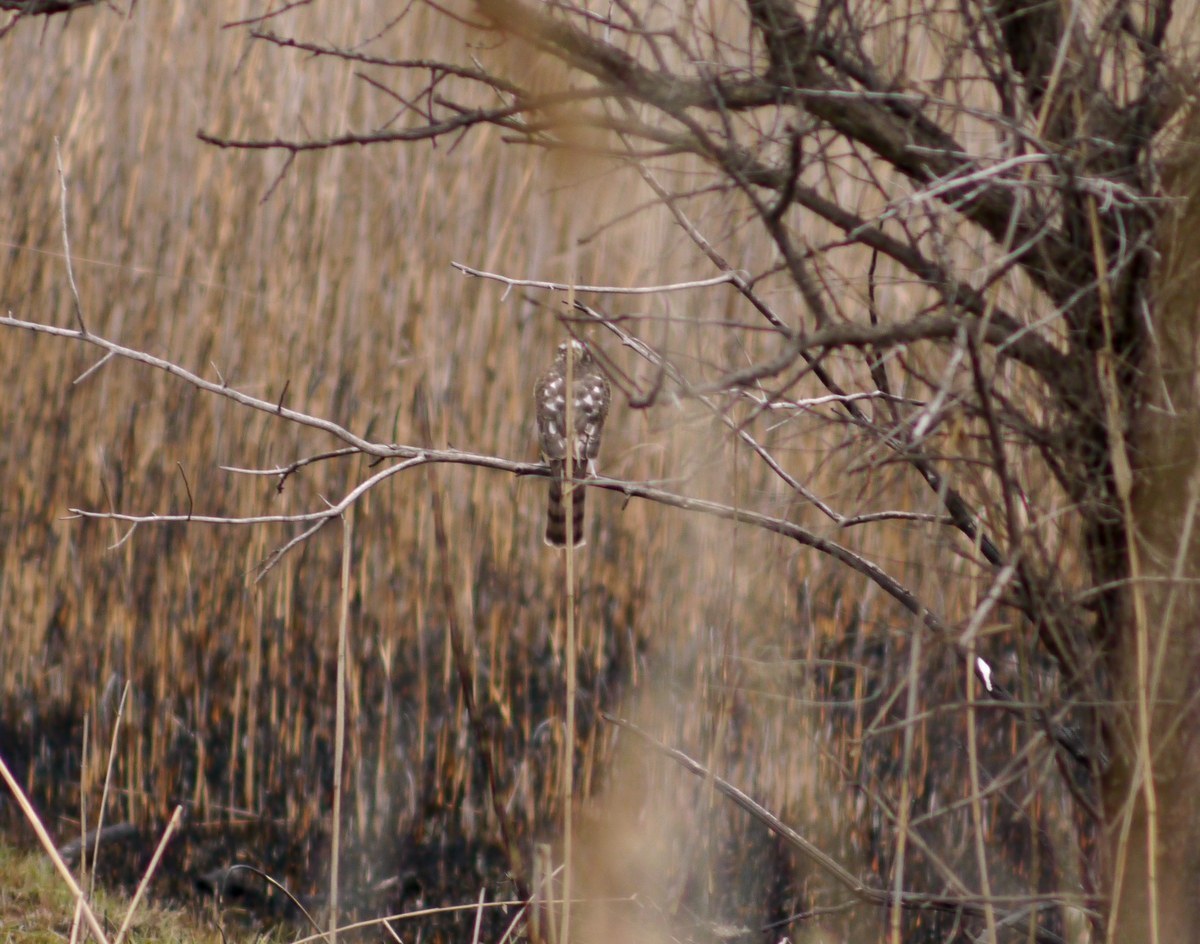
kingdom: Animalia
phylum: Chordata
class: Aves
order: Accipitriformes
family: Accipitridae
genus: Accipiter
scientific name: Accipiter nisus
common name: Eurasian sparrowhawk
